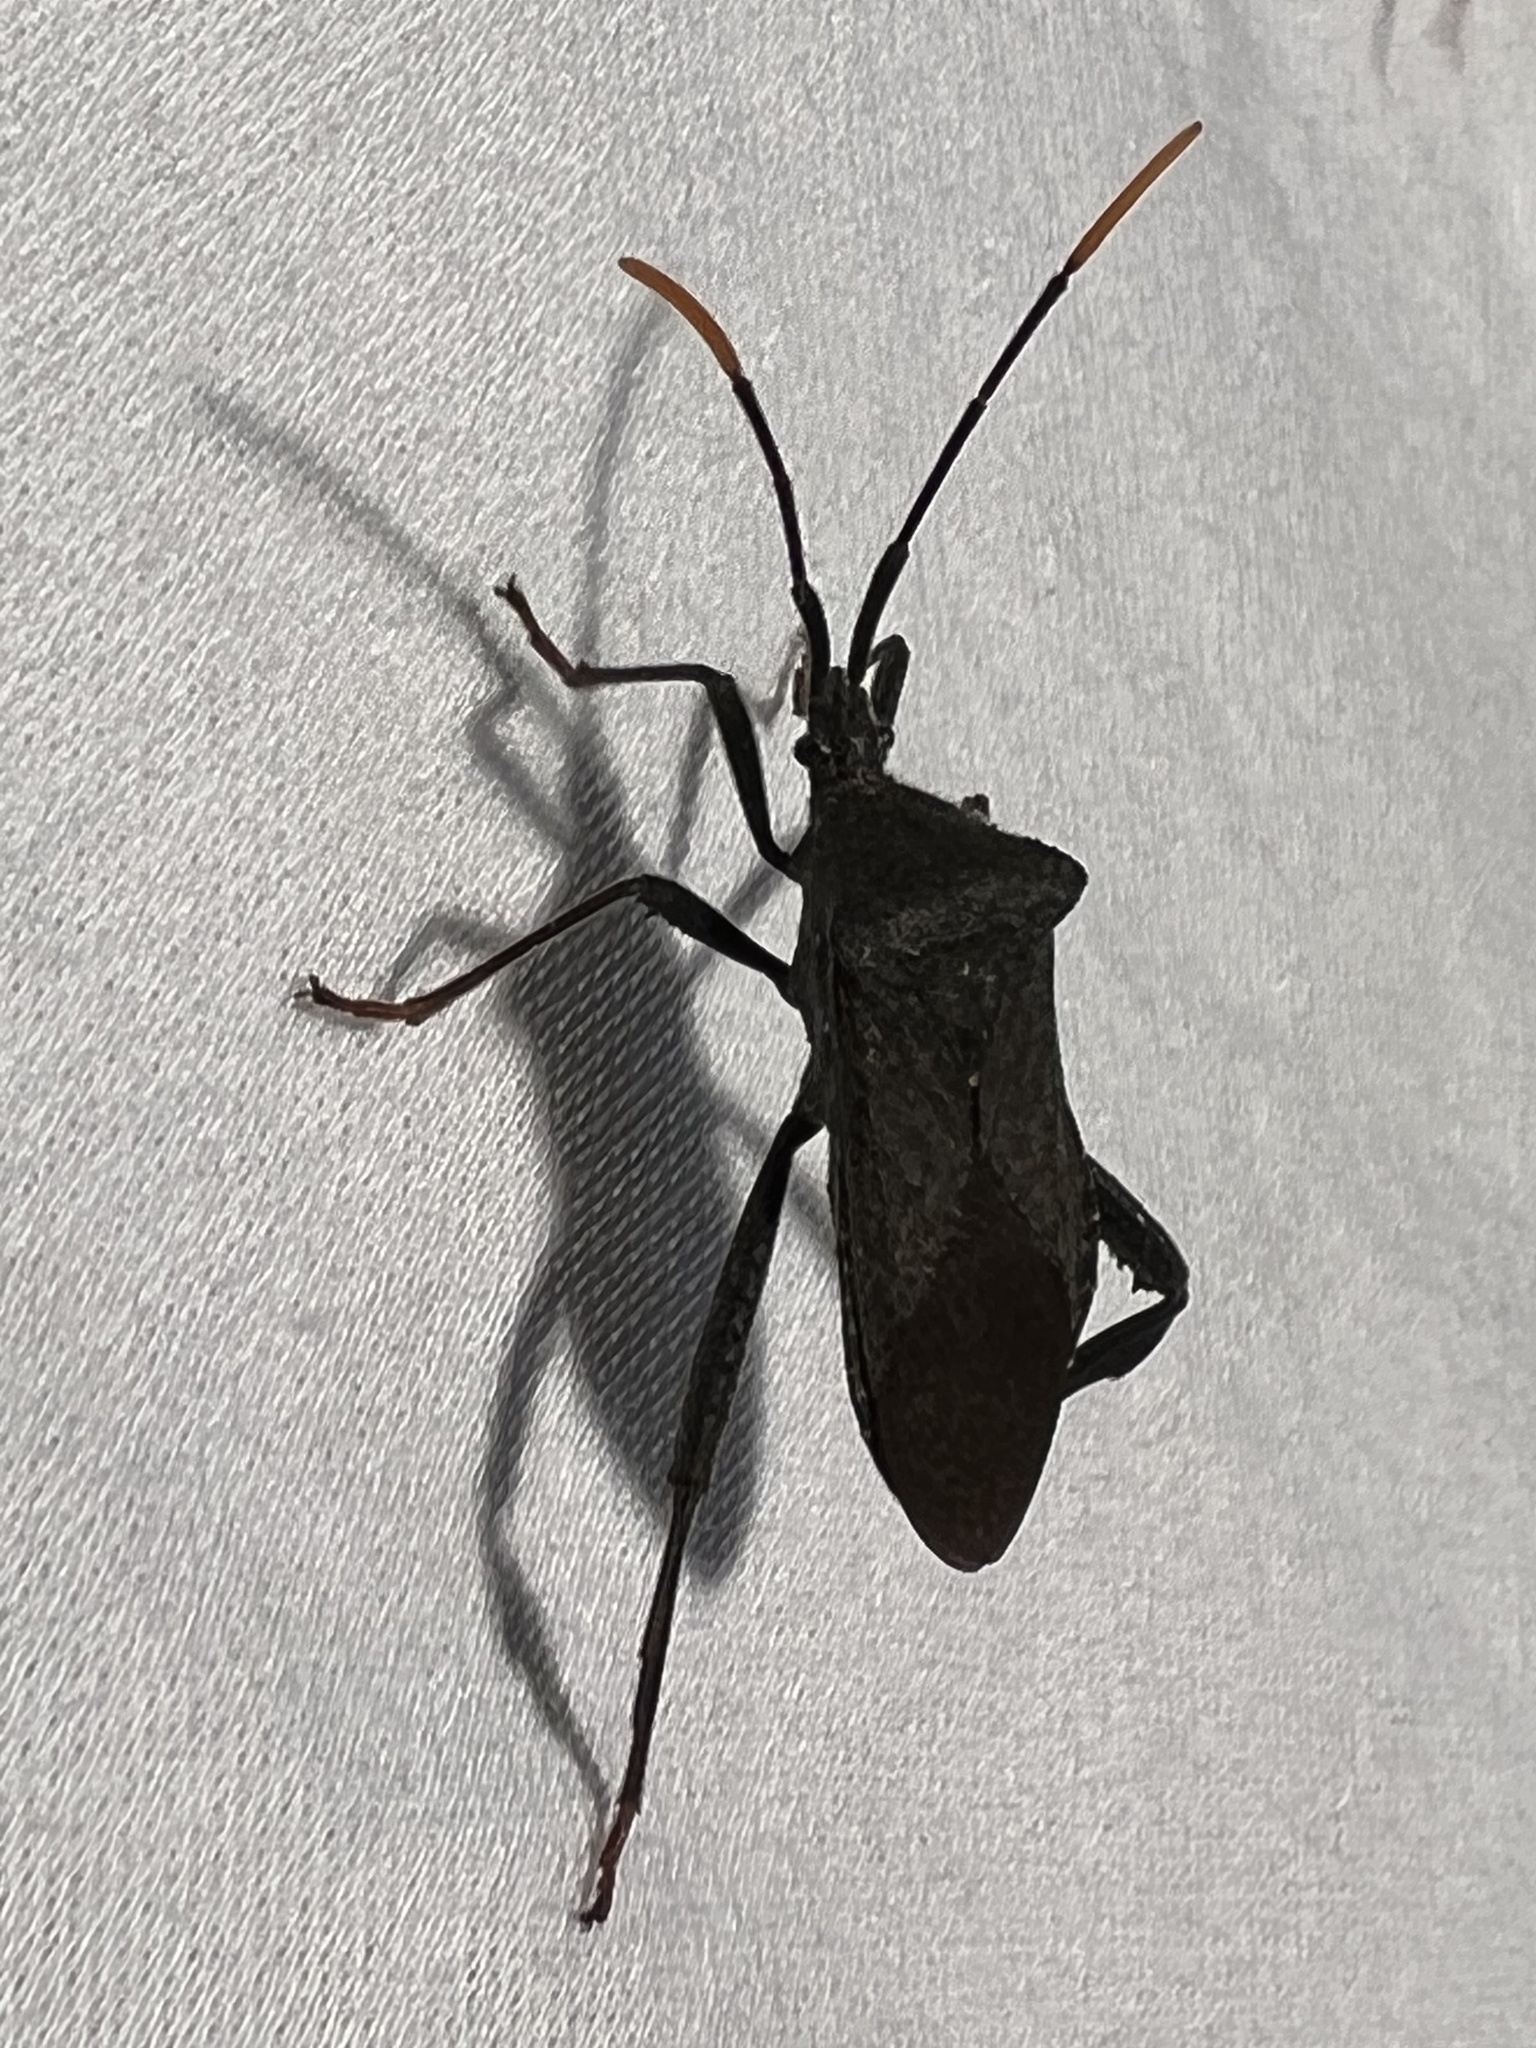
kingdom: Animalia
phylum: Arthropoda
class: Insecta
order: Hemiptera
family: Coreidae
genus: Acanthocephala
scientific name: Acanthocephala terminalis
